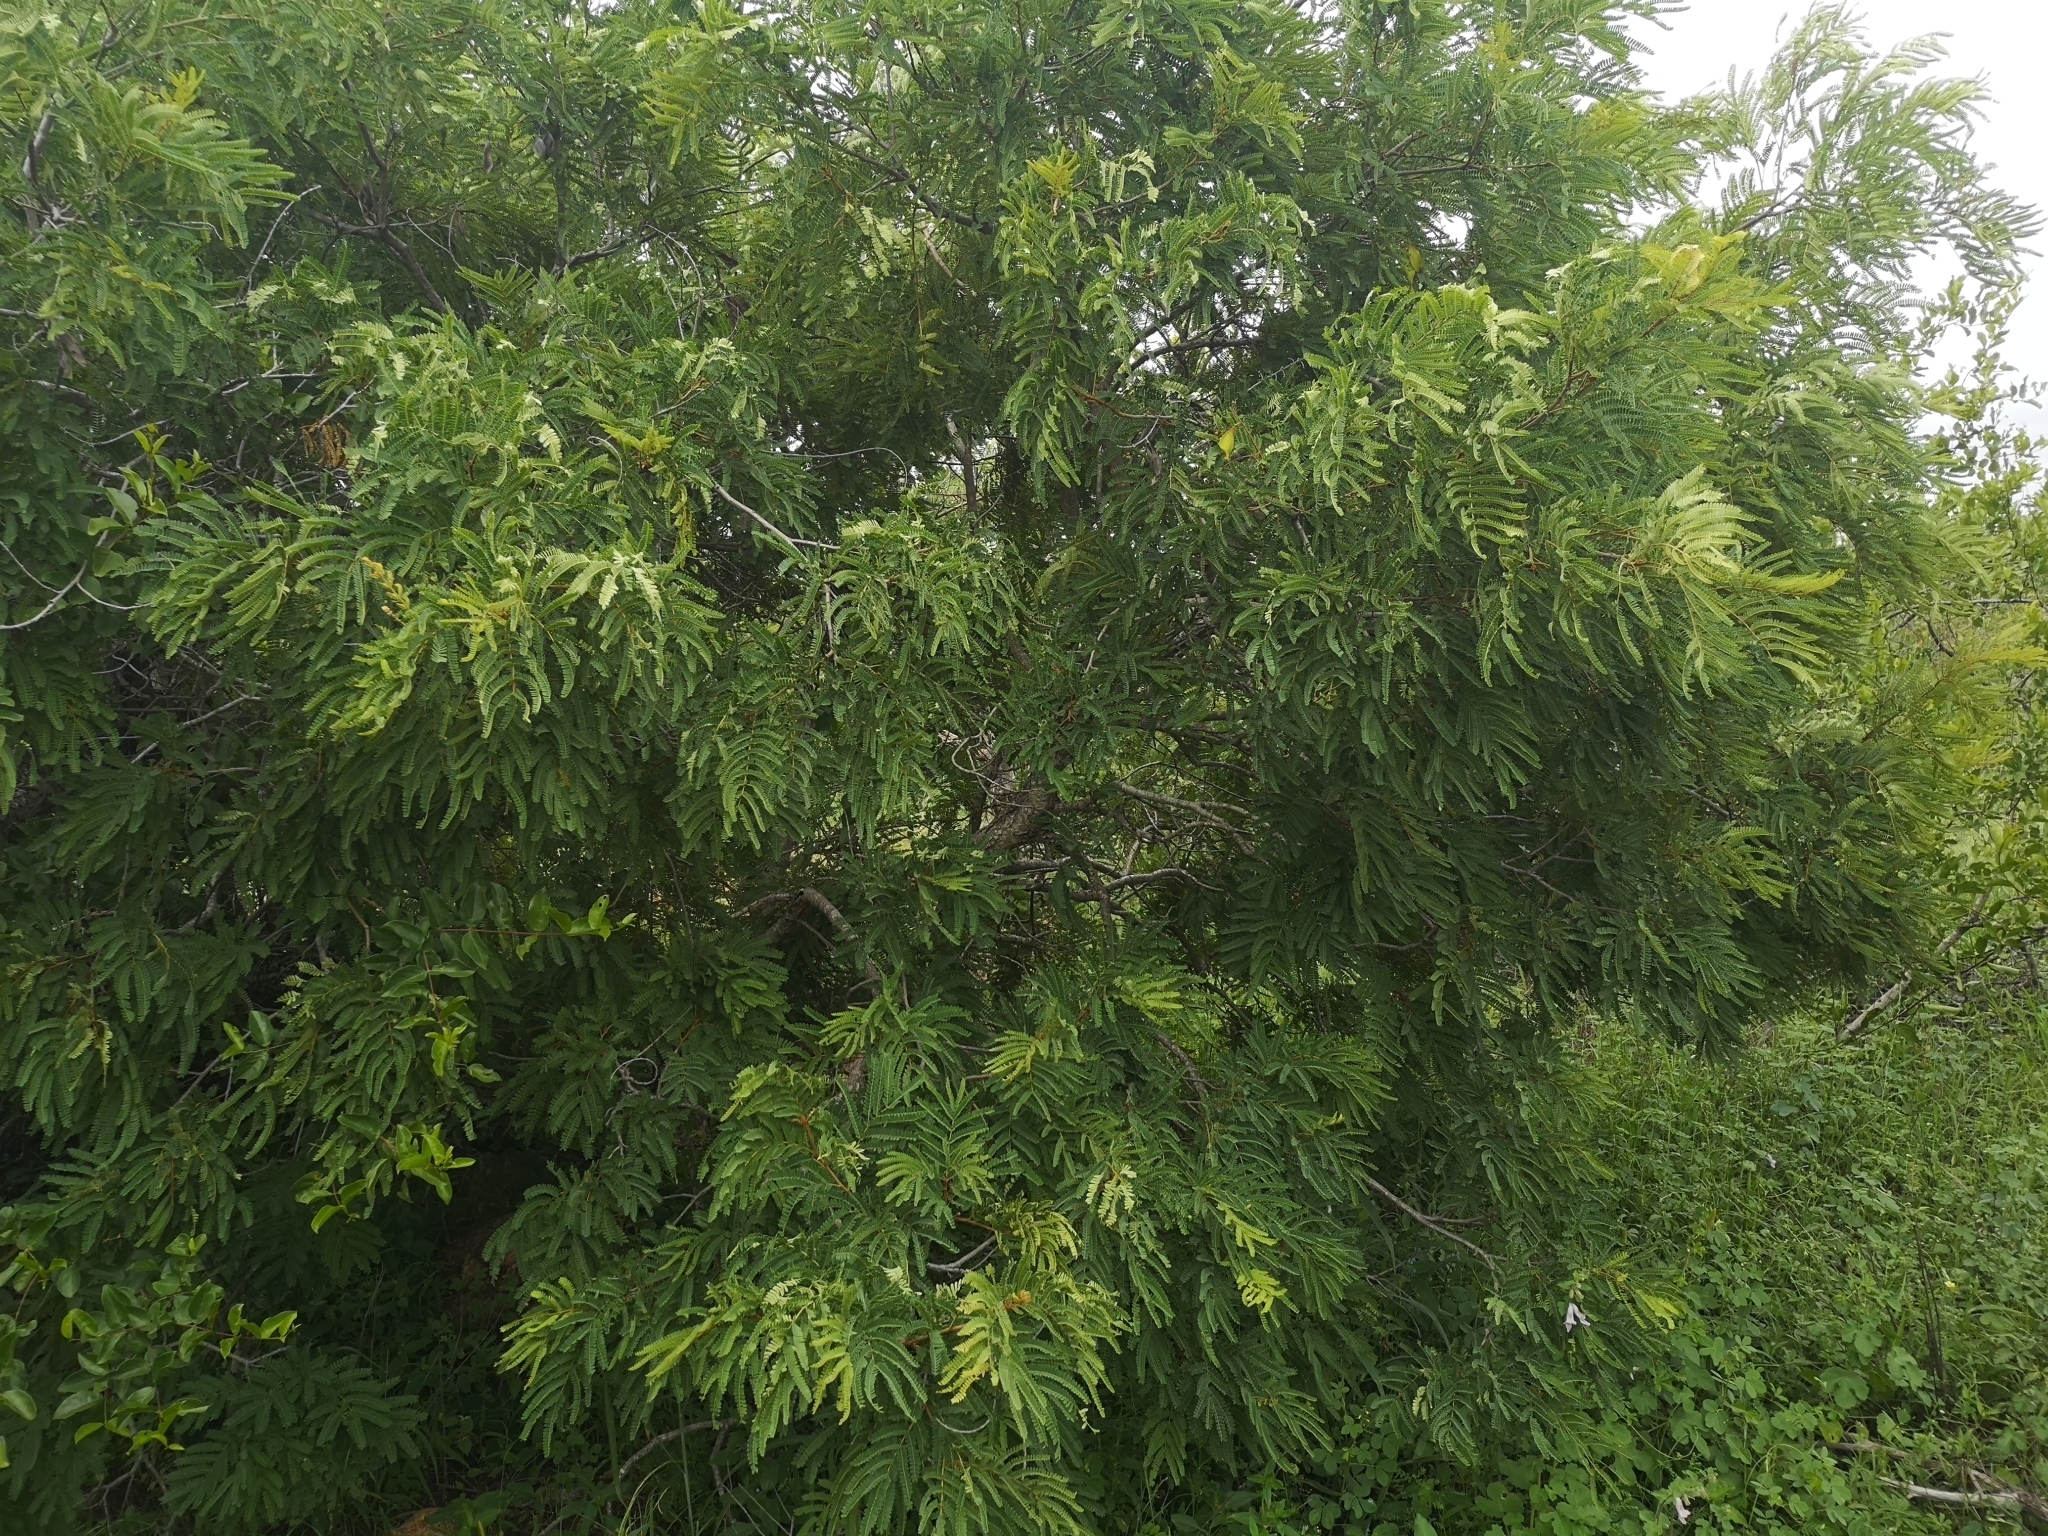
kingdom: Plantae
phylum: Tracheophyta
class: Magnoliopsida
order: Fabales
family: Fabaceae
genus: Peltophorum
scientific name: Peltophorum africanum
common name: African black wattle
